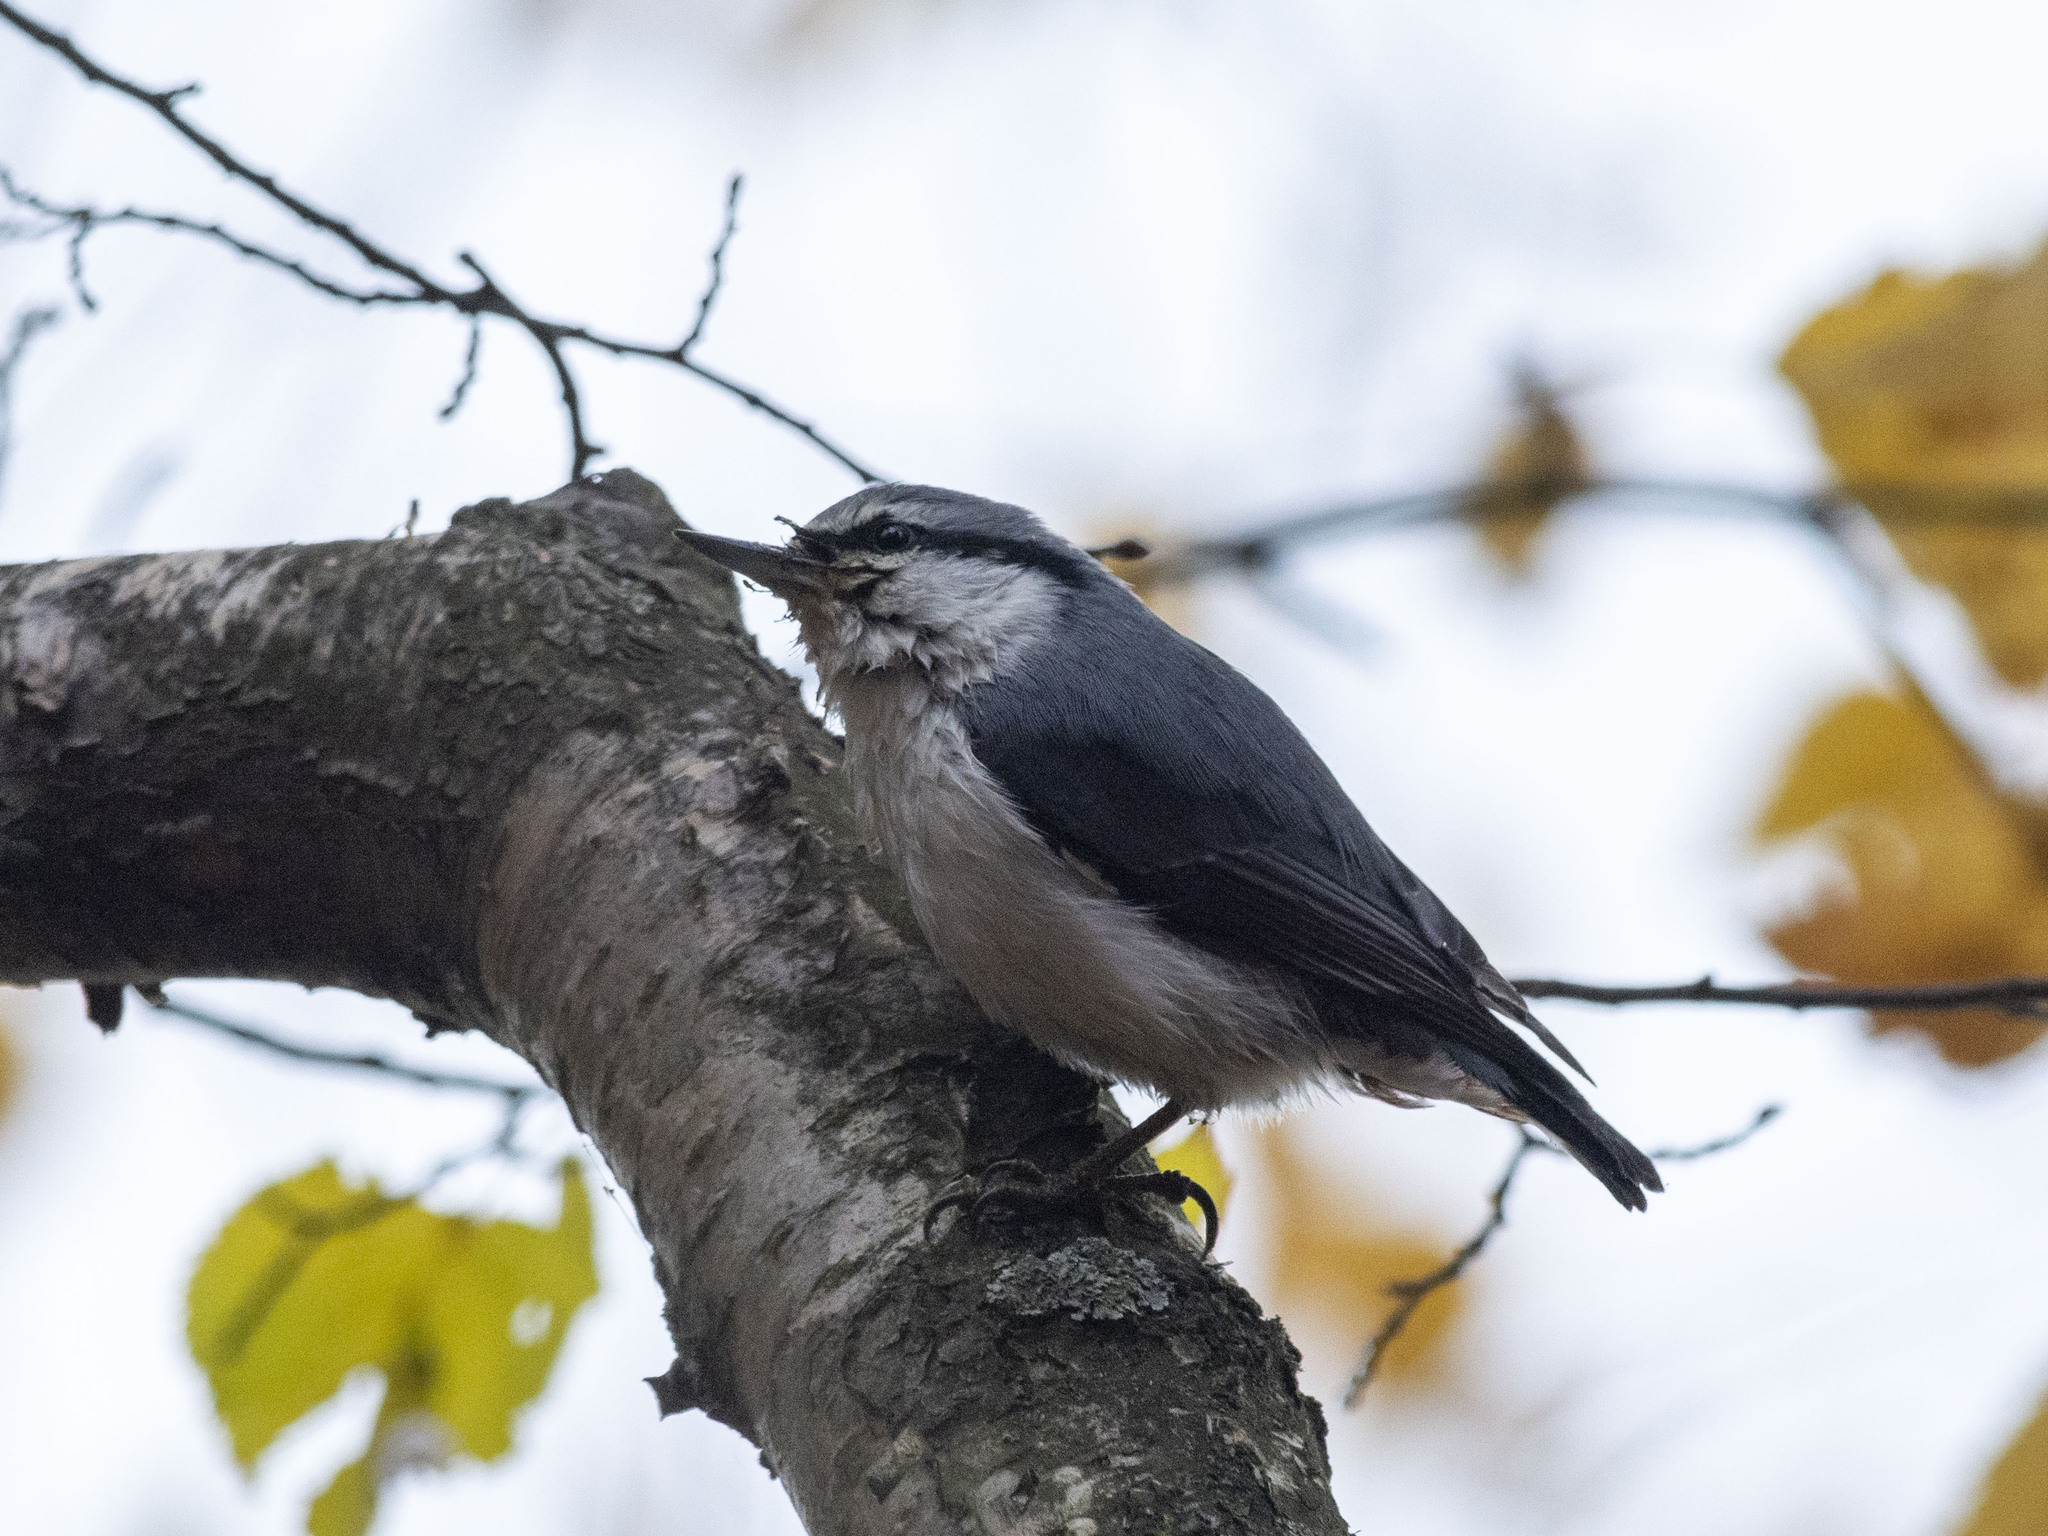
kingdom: Animalia
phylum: Chordata
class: Aves
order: Passeriformes
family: Sittidae
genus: Sitta
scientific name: Sitta europaea
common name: Eurasian nuthatch
